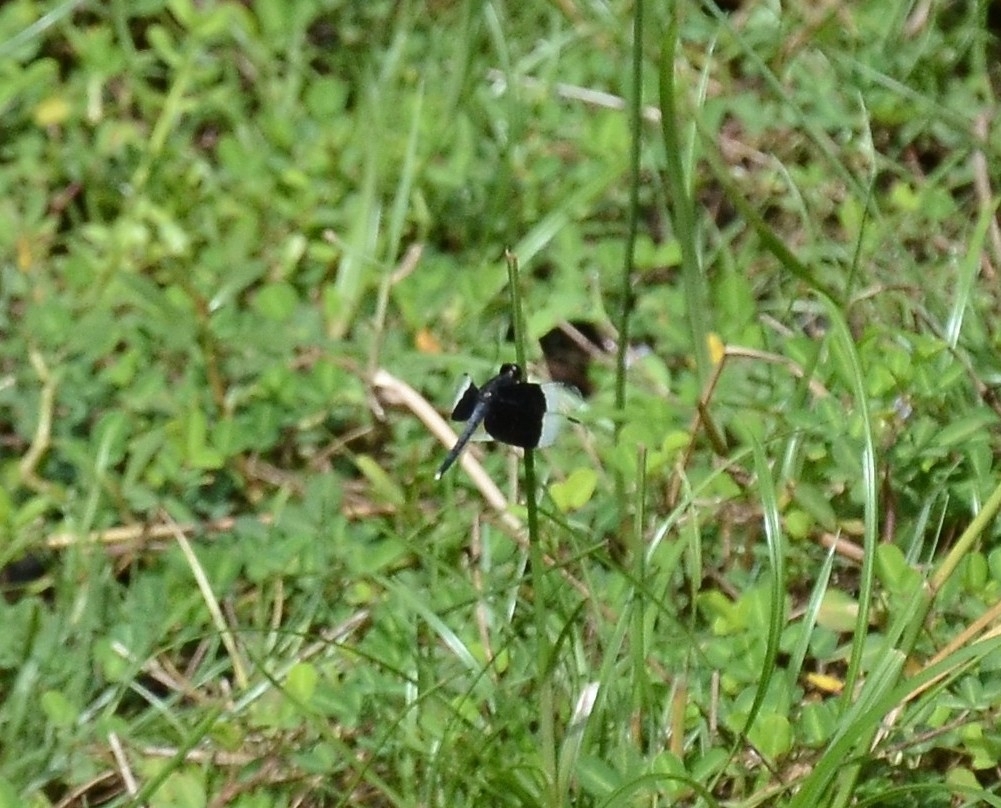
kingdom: Animalia
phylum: Arthropoda
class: Insecta
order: Odonata
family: Libellulidae
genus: Neurothemis
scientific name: Neurothemis tullia
